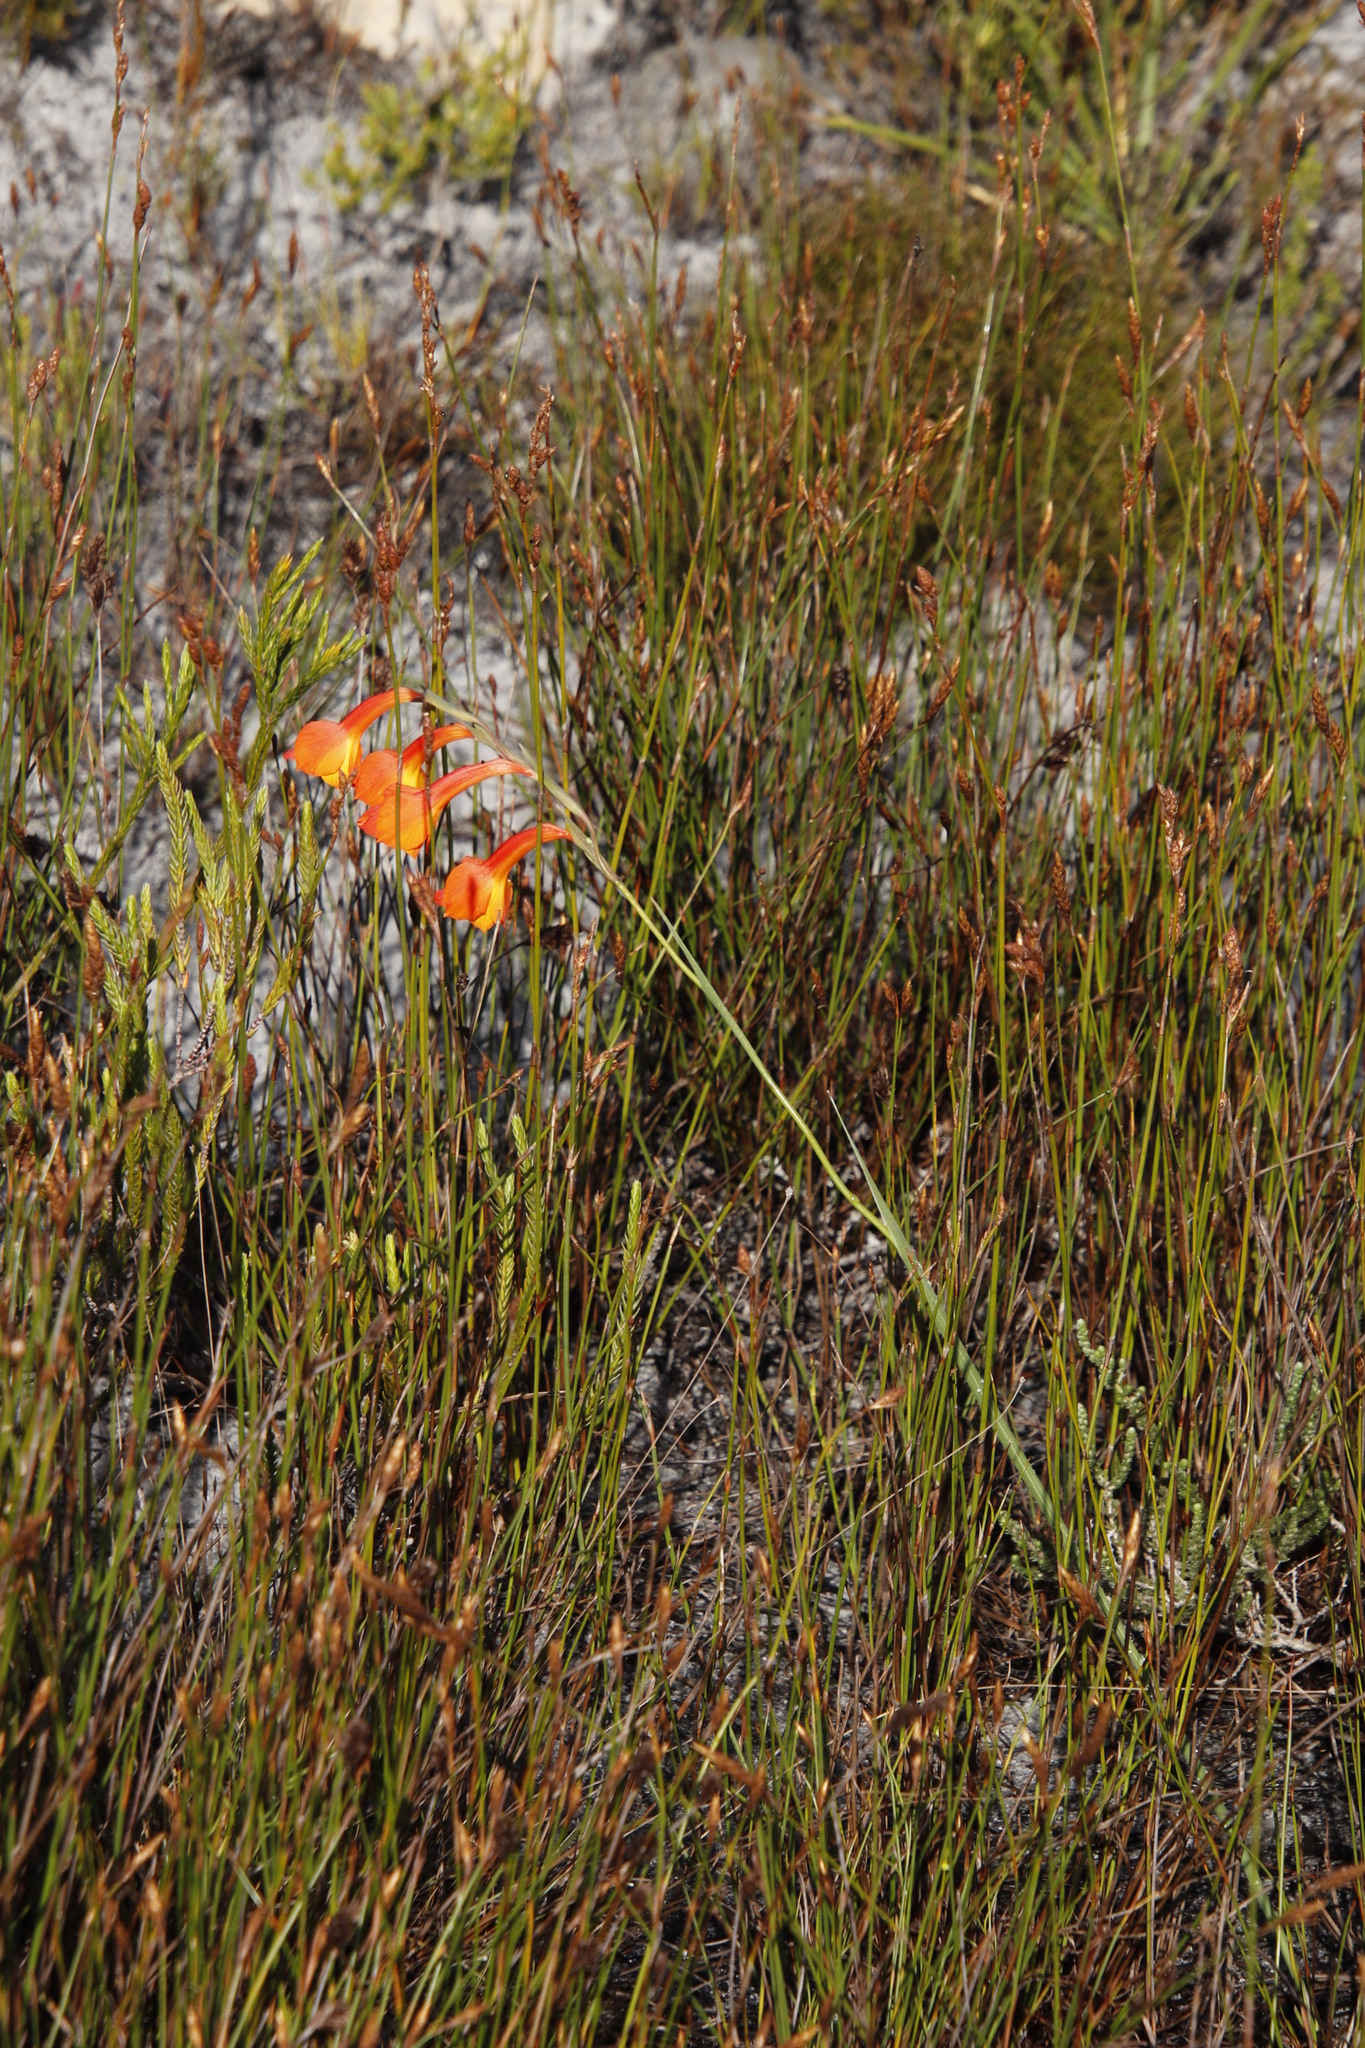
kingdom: Plantae
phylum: Tracheophyta
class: Liliopsida
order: Asparagales
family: Iridaceae
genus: Gladiolus
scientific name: Gladiolus merianellus
